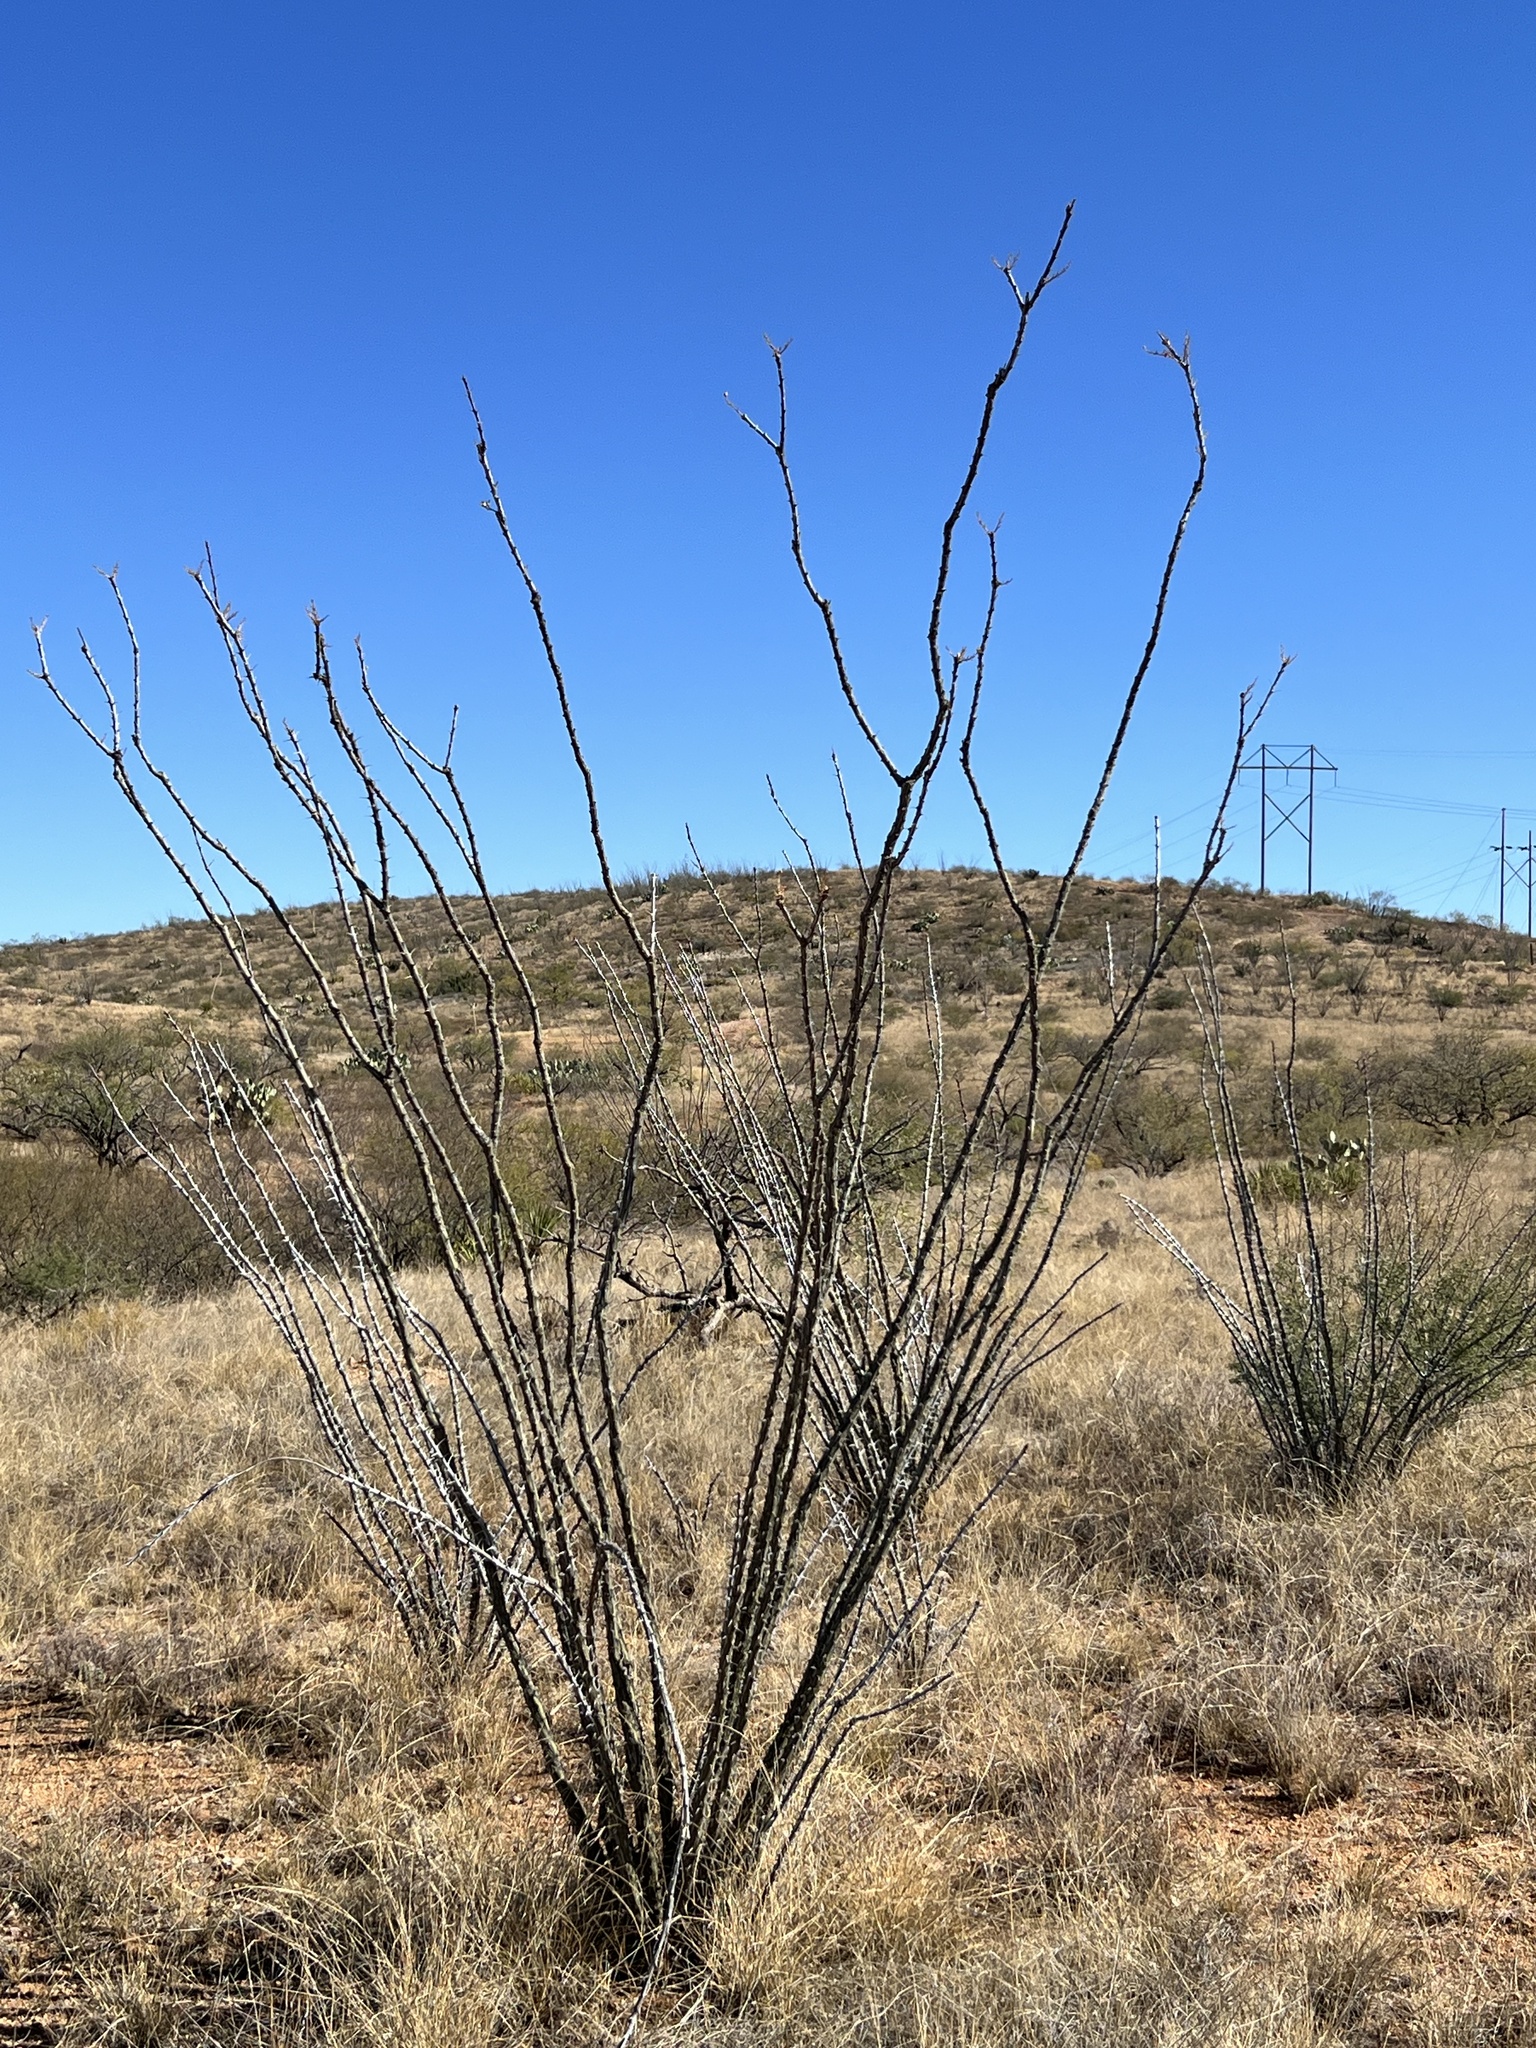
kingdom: Plantae
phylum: Tracheophyta
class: Magnoliopsida
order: Ericales
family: Fouquieriaceae
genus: Fouquieria
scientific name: Fouquieria splendens
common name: Vine-cactus
